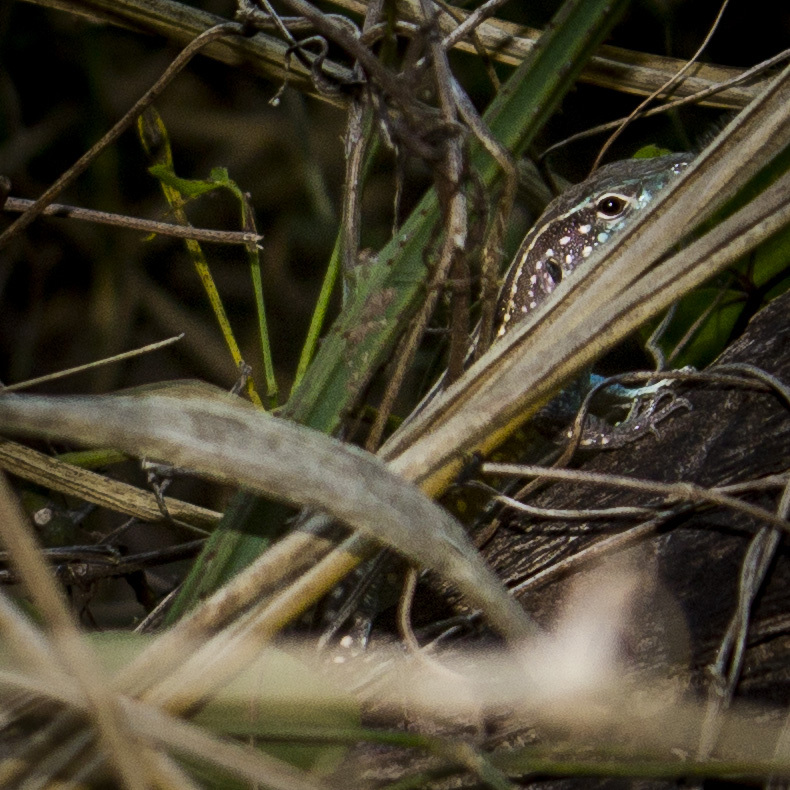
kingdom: Animalia
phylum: Chordata
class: Squamata
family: Teiidae
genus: Cnemidophorus
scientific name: Cnemidophorus gaigei
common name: Gaige’s rainbow lizard
